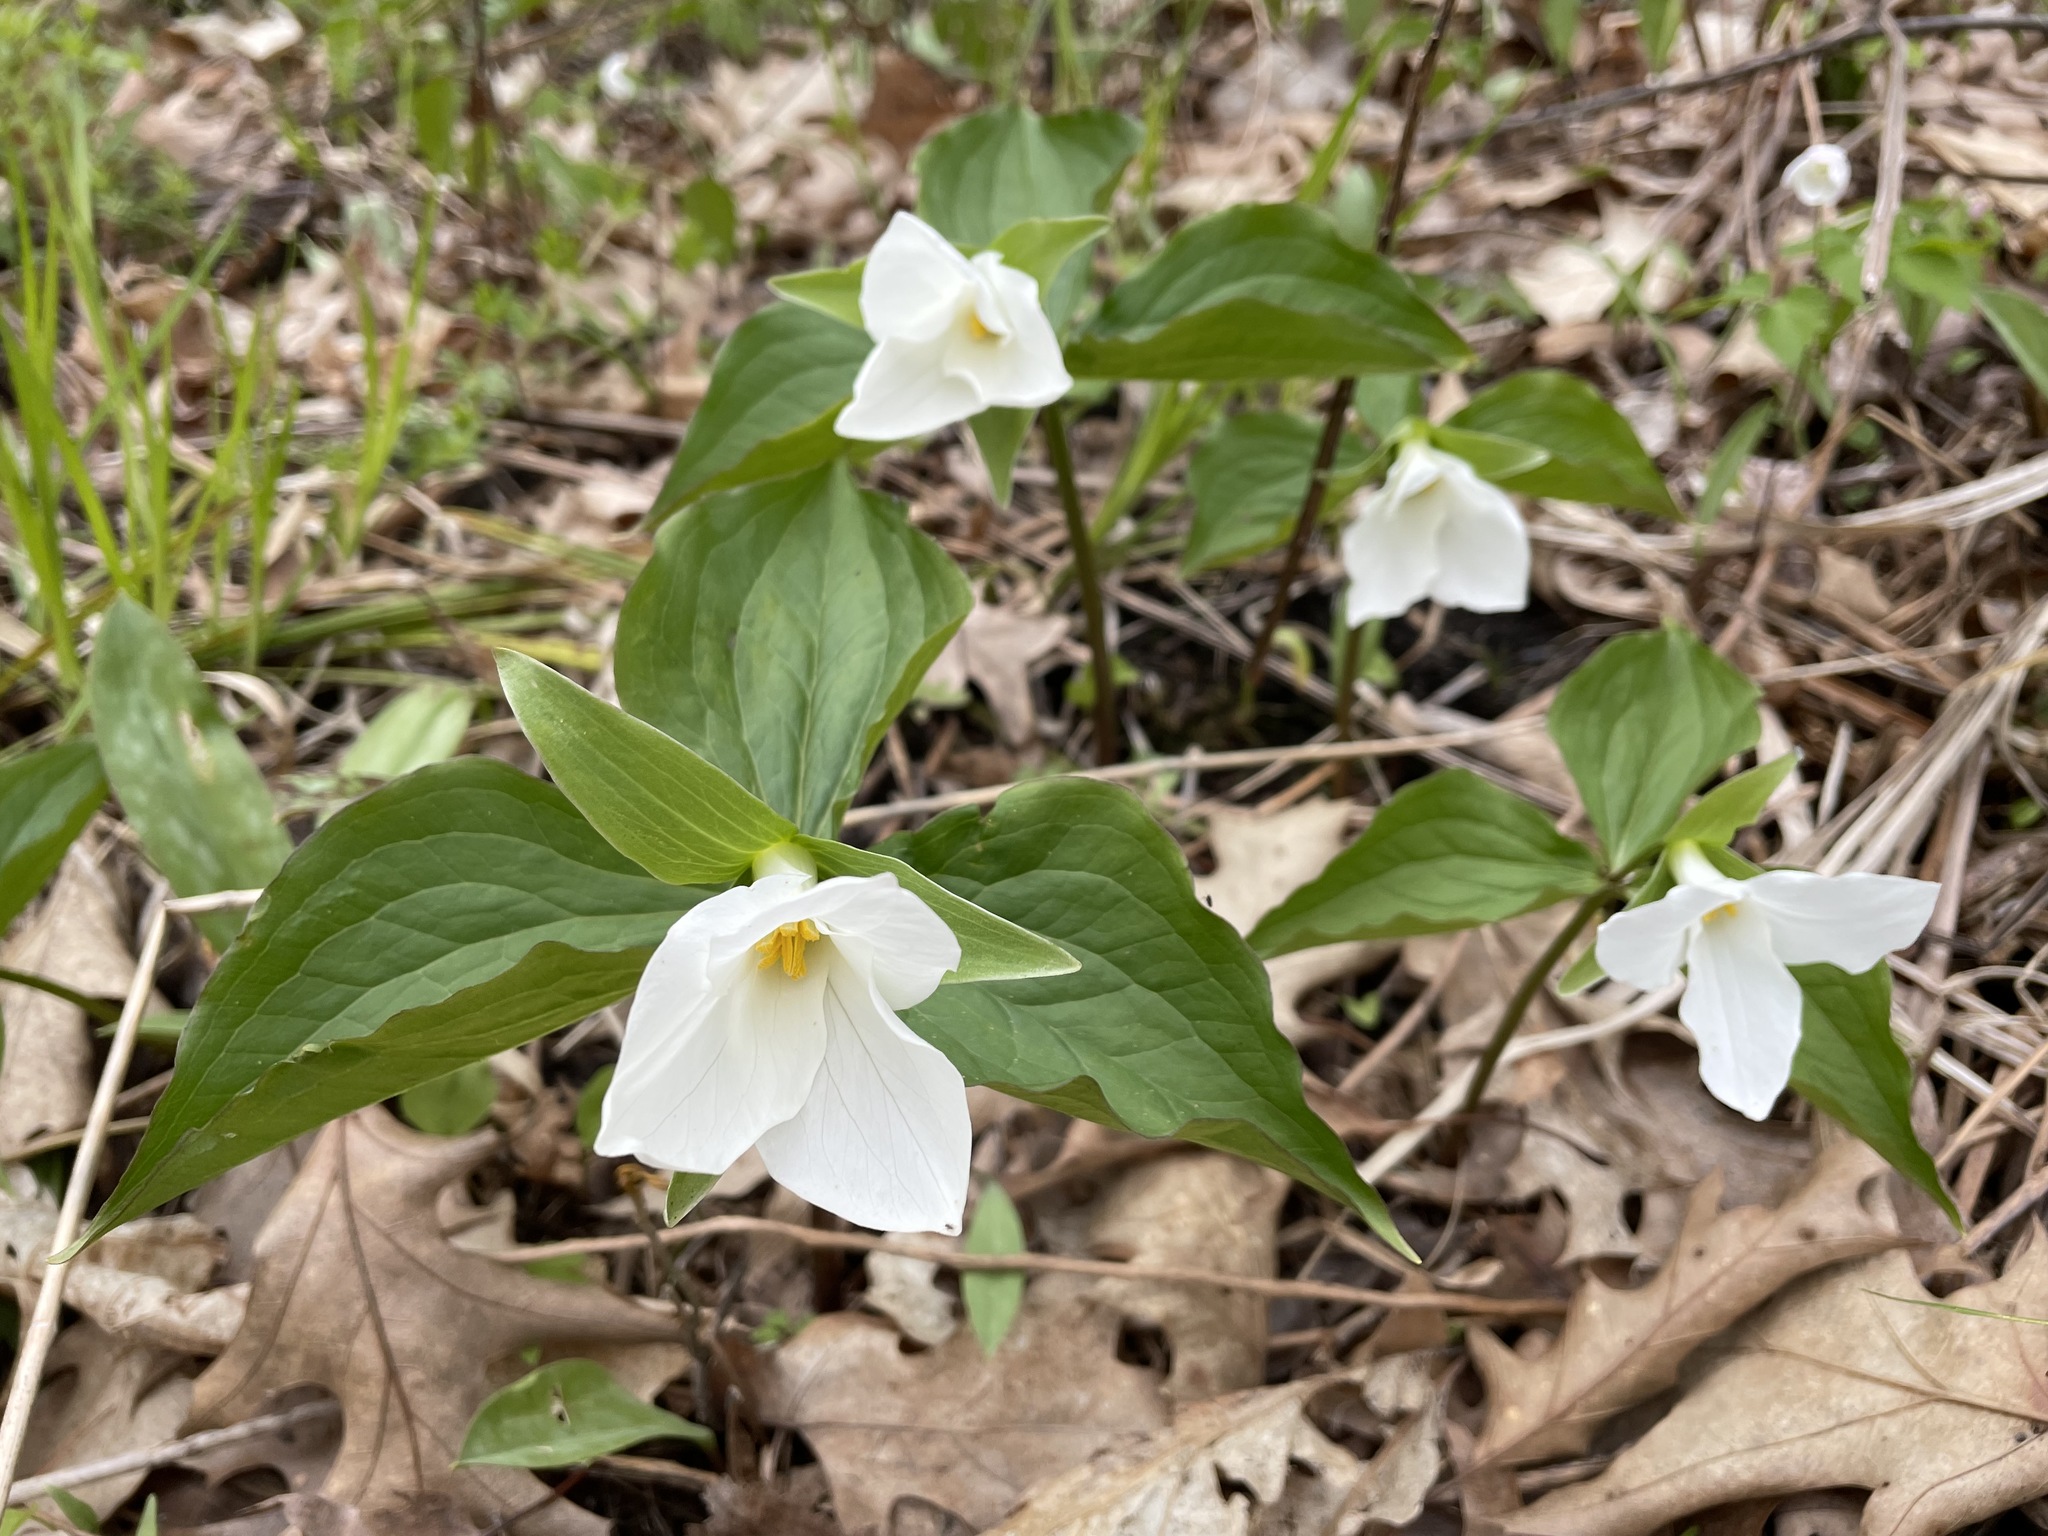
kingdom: Plantae
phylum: Tracheophyta
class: Liliopsida
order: Liliales
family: Melanthiaceae
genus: Trillium
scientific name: Trillium grandiflorum
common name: Great white trillium
